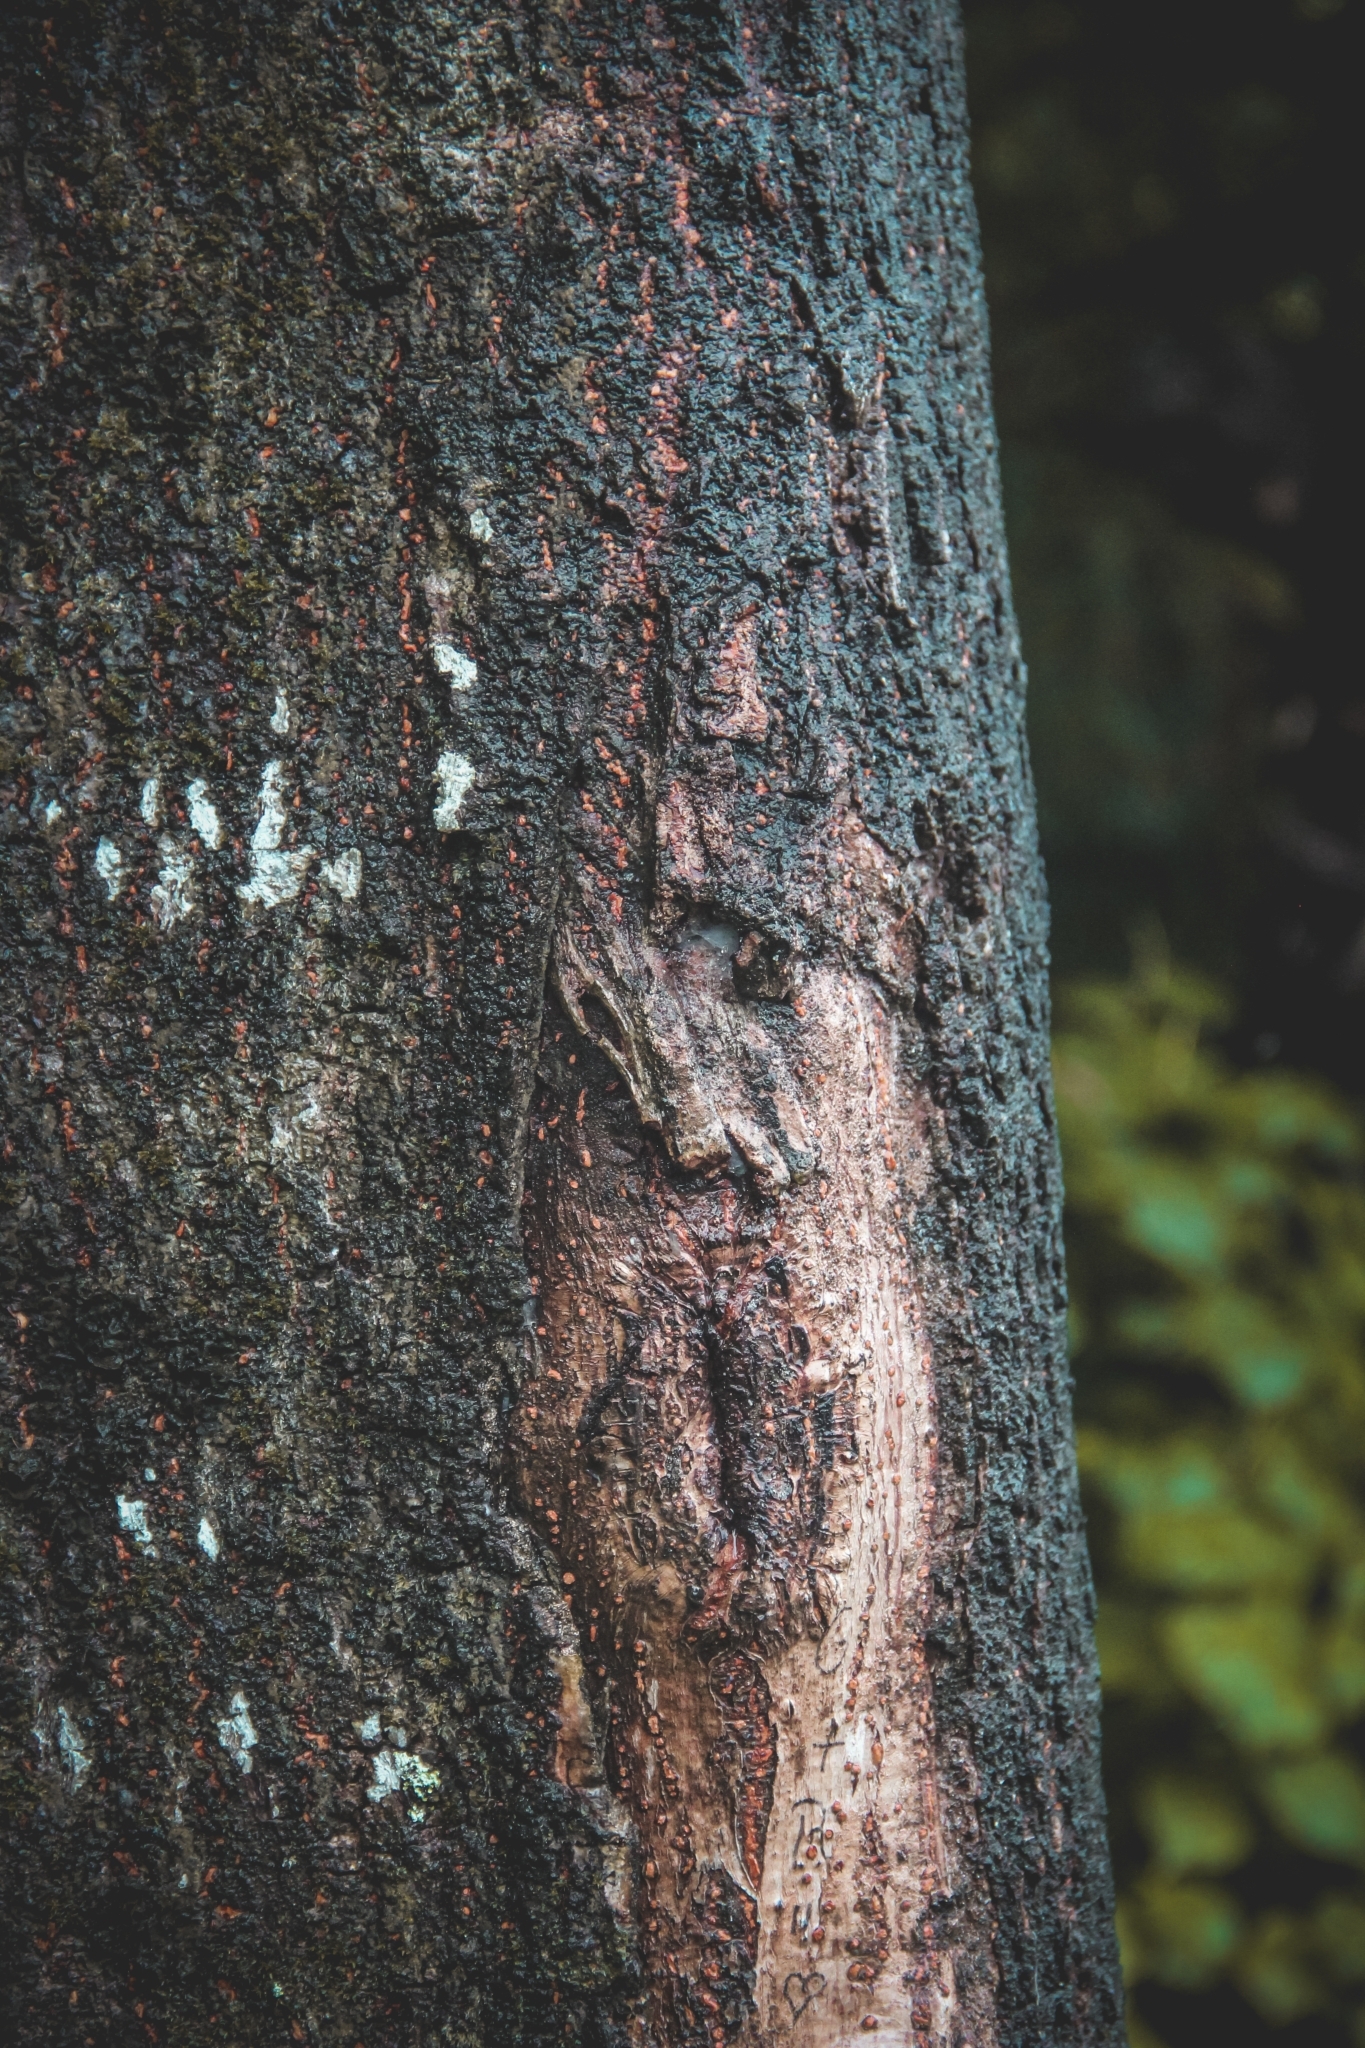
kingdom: Plantae
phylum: Tracheophyta
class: Magnoliopsida
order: Ericales
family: Lecythidaceae
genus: Couroupita
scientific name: Couroupita guianensis
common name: Cannonball tree
